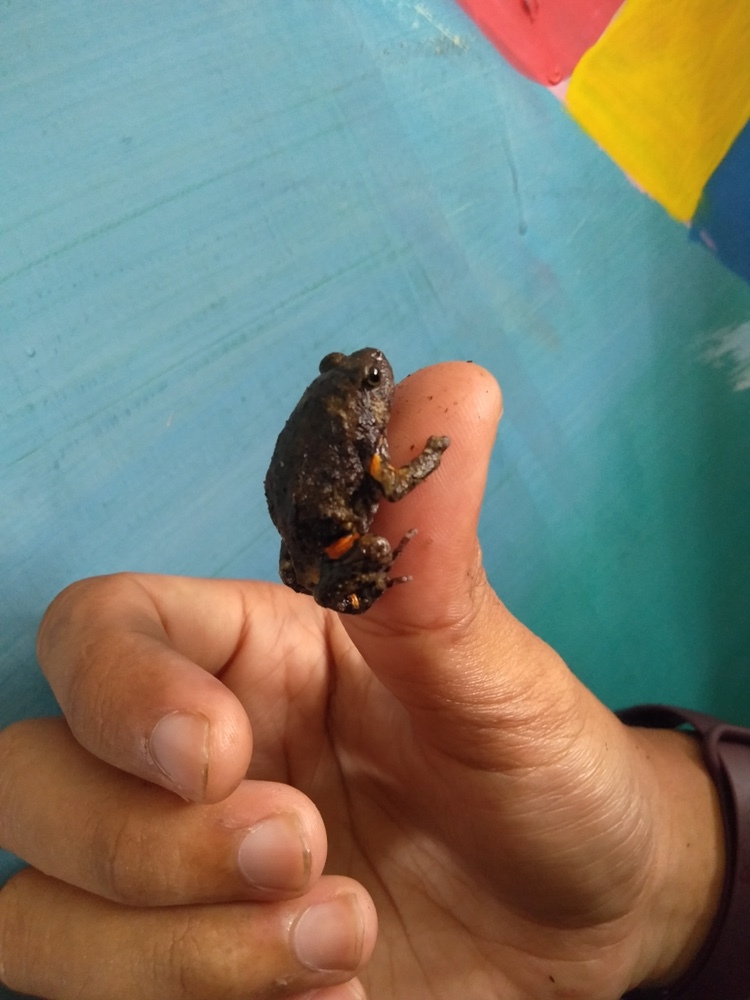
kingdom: Animalia
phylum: Chordata
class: Amphibia
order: Anura
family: Microhylidae
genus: Kaloula
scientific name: Kaloula baleata
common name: Brown,javanese bullfrog
